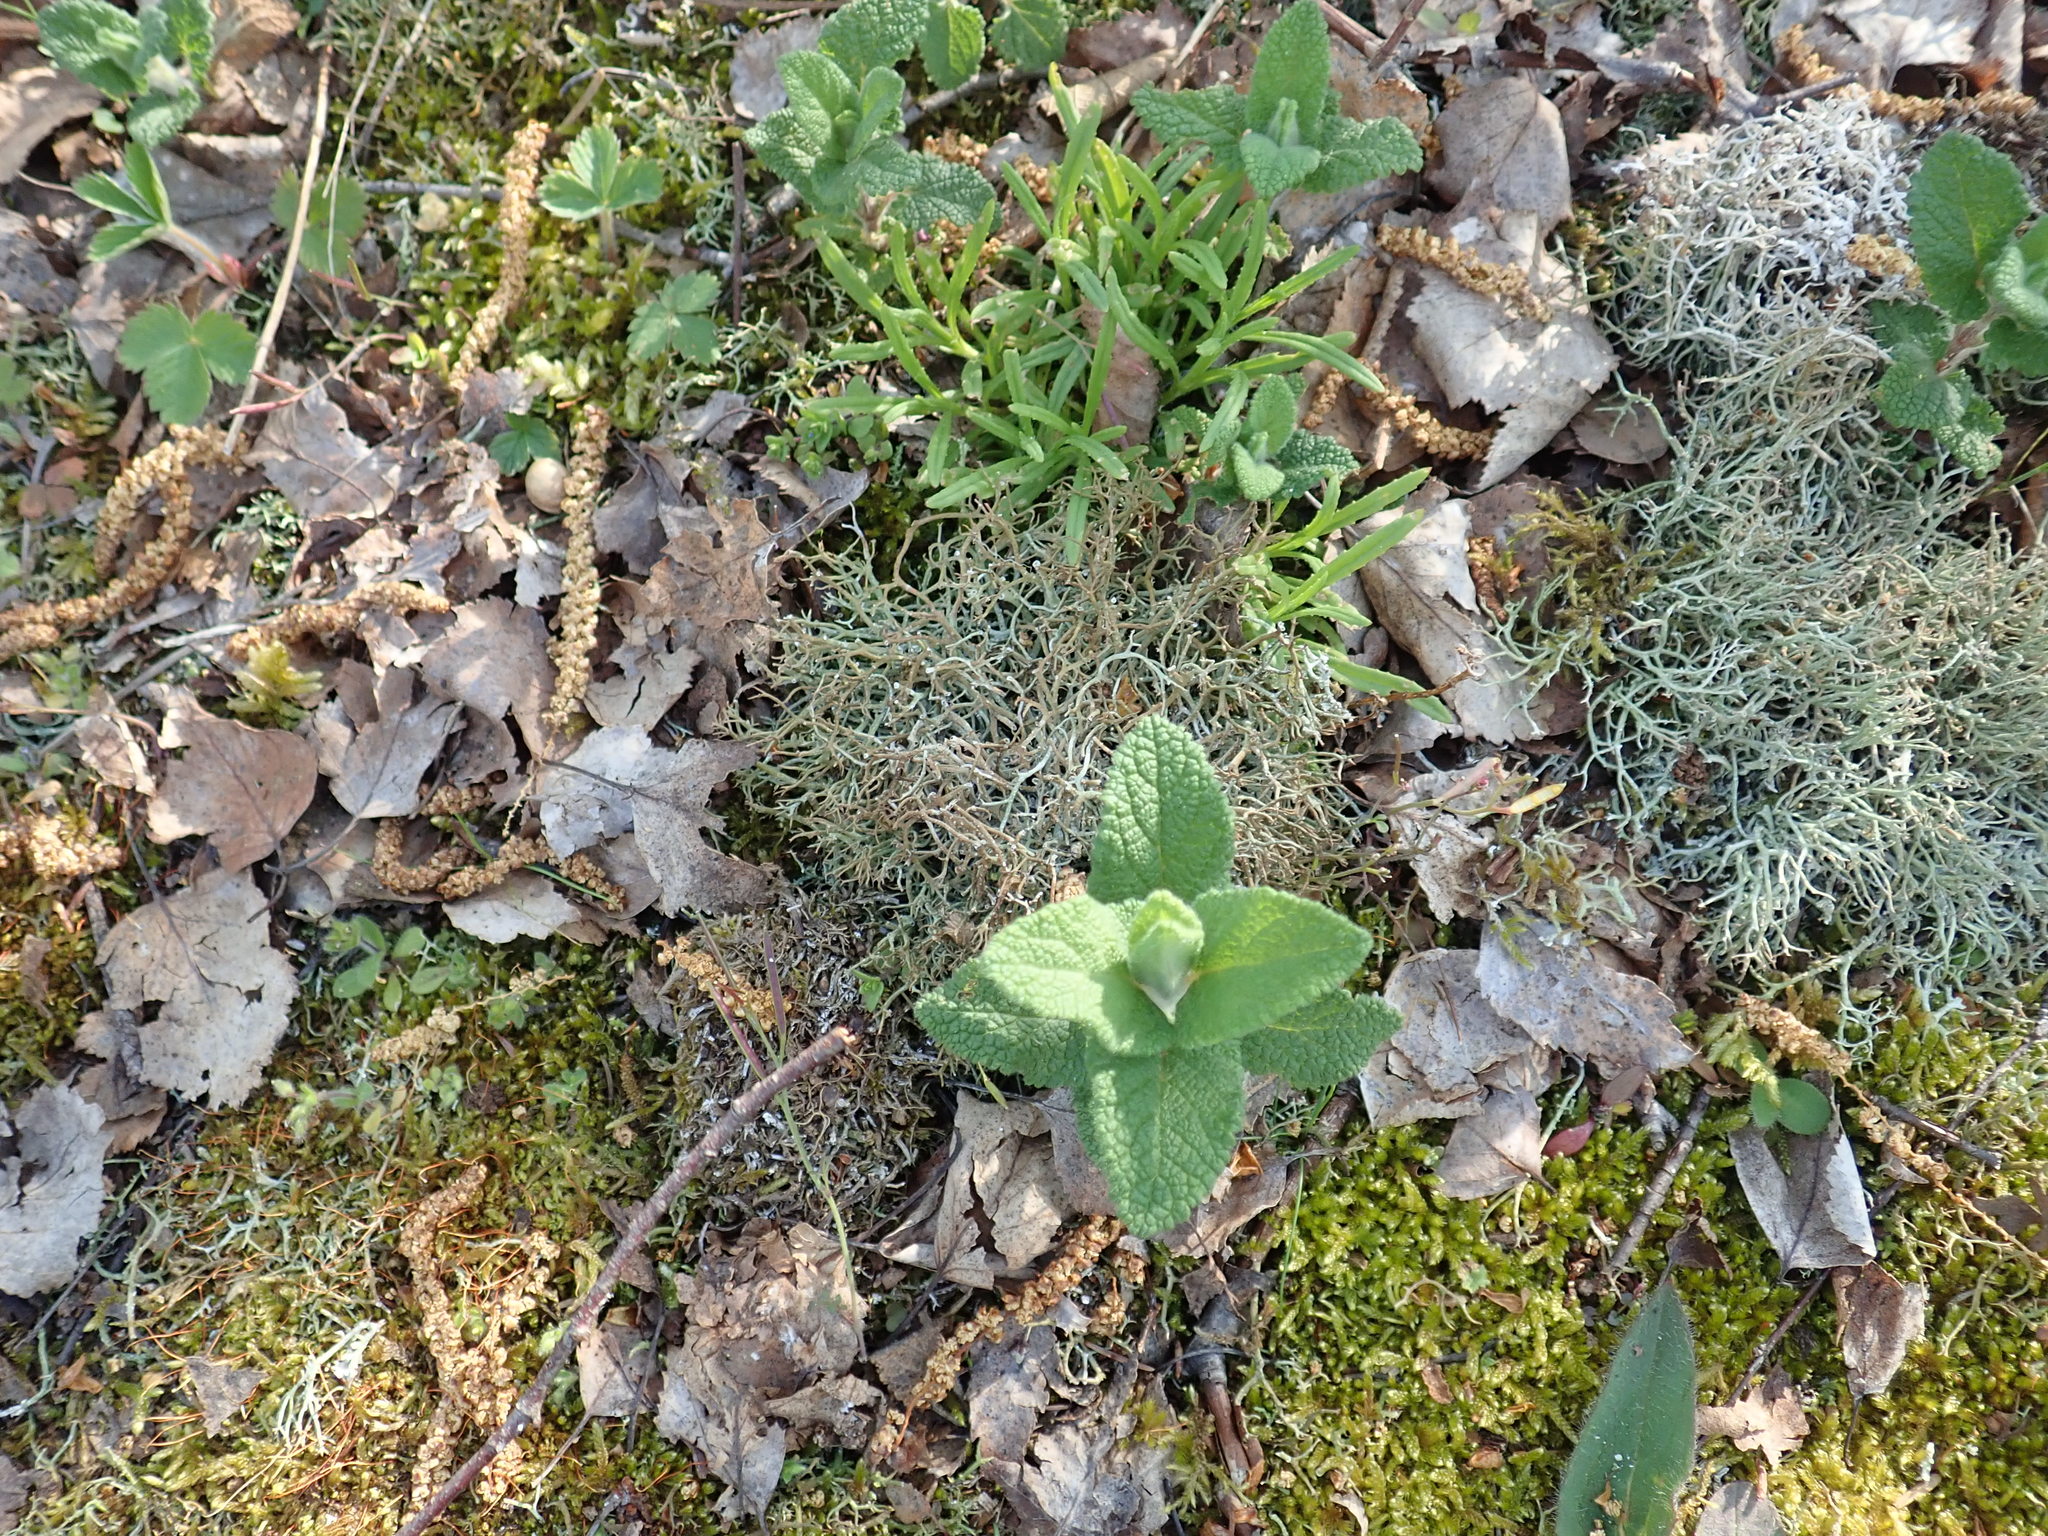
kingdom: Plantae
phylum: Tracheophyta
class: Magnoliopsida
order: Lamiales
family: Lamiaceae
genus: Teucrium
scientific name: Teucrium scorodonia
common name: Woodland germander
